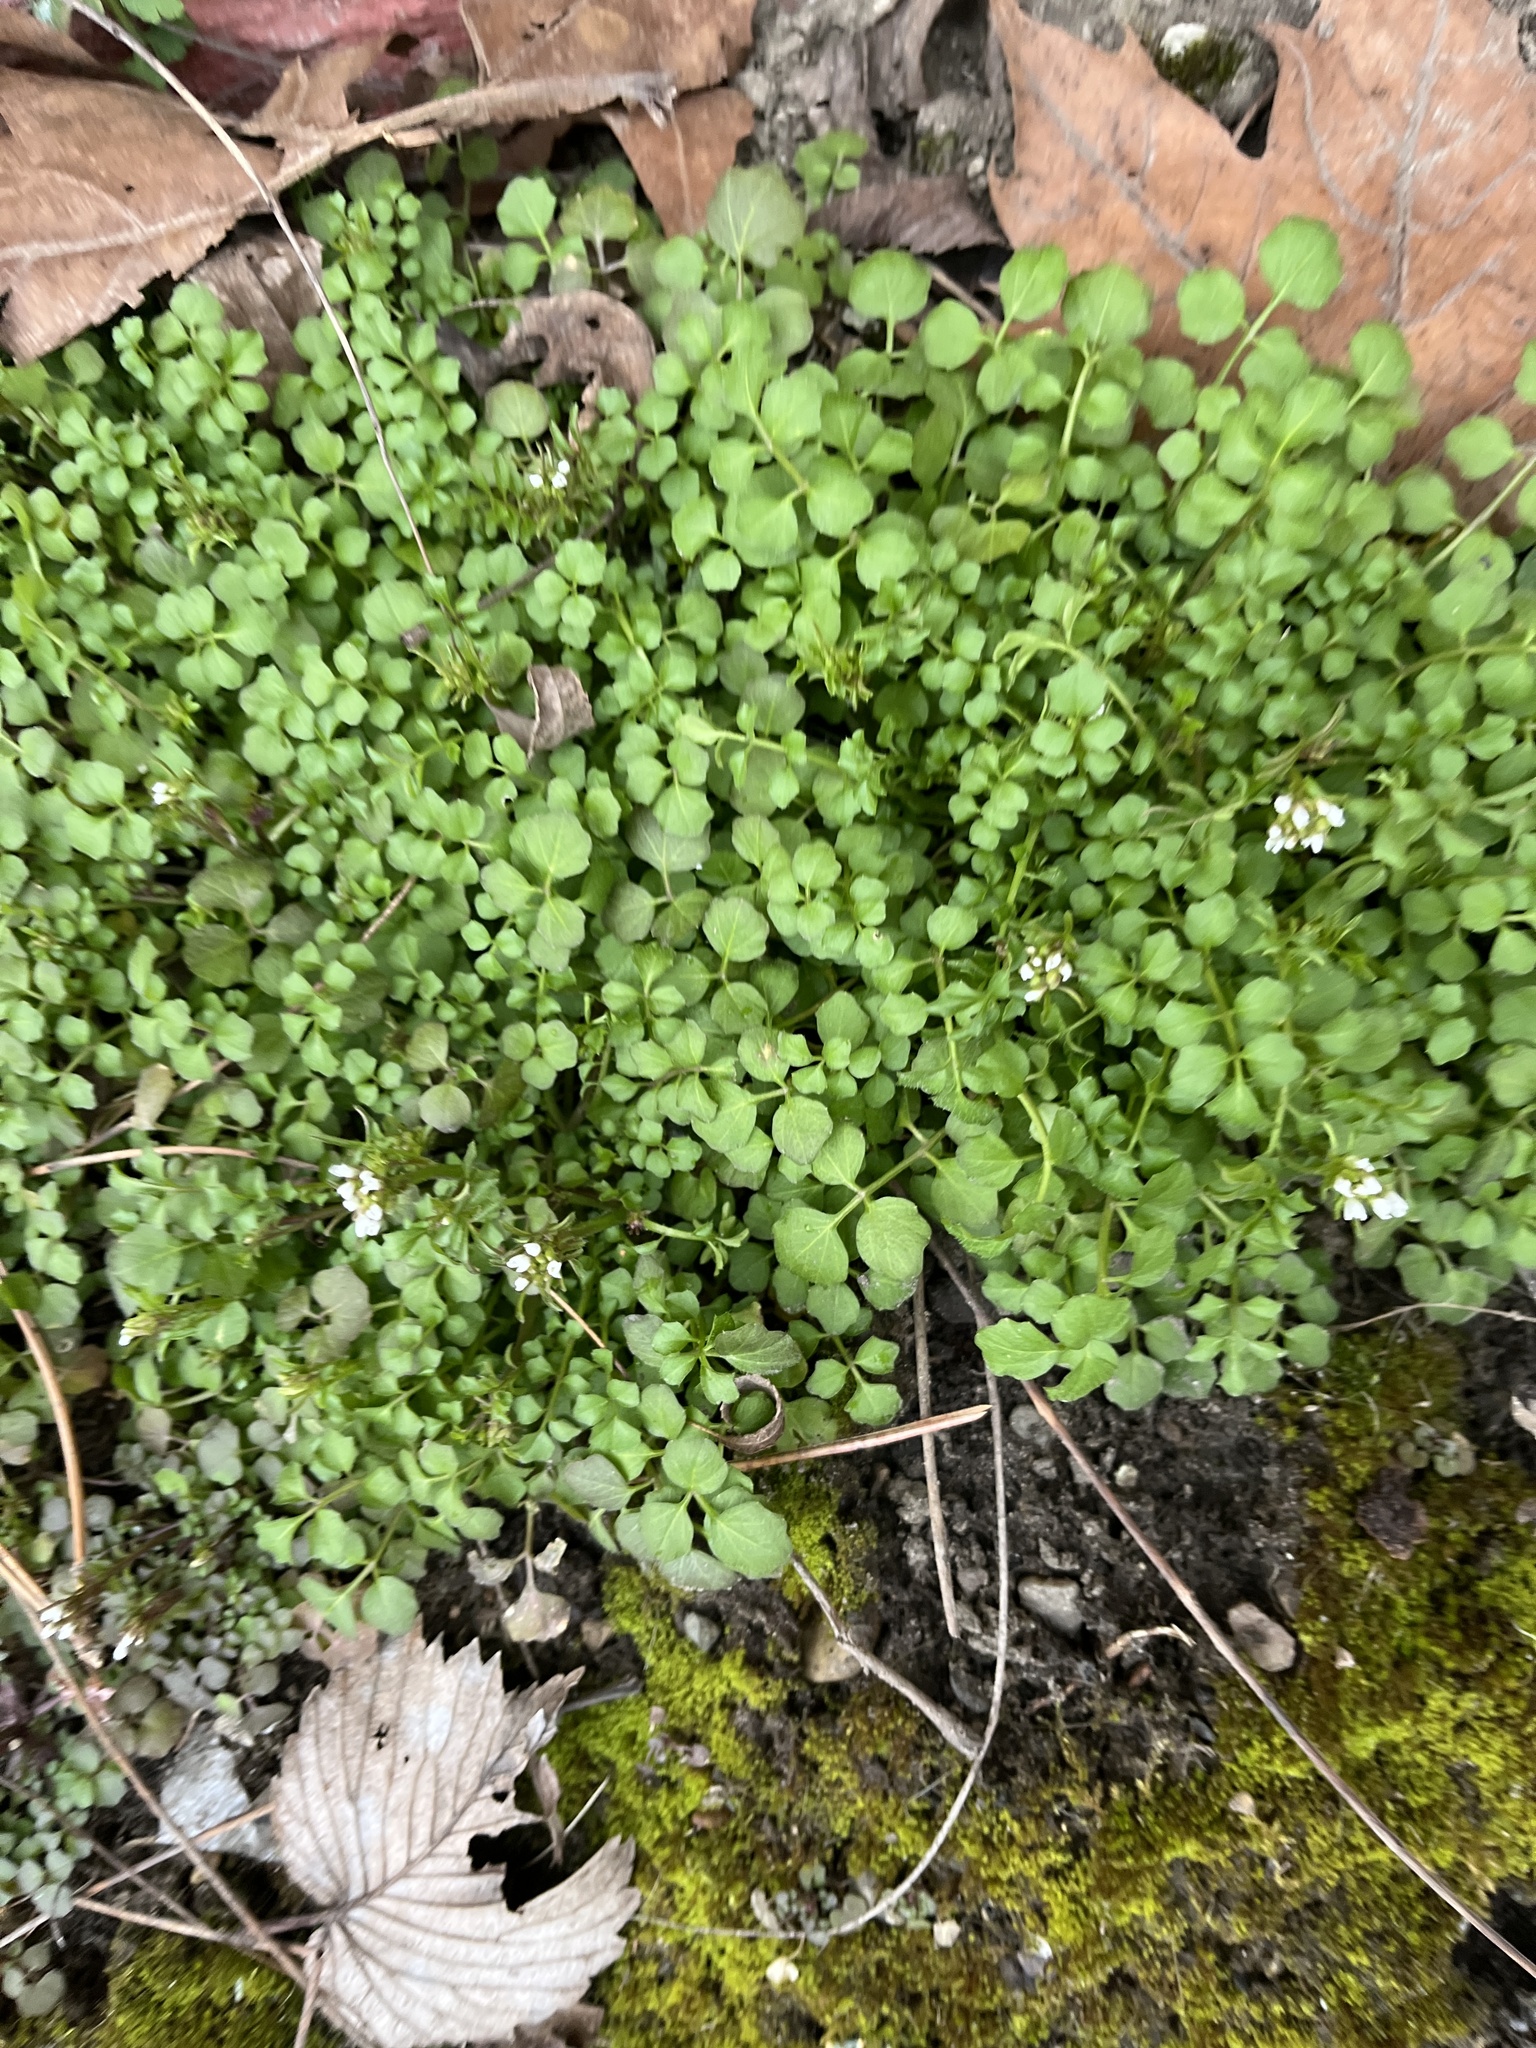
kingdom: Plantae
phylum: Tracheophyta
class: Magnoliopsida
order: Brassicales
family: Brassicaceae
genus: Cardamine
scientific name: Cardamine hirsuta
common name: Hairy bittercress
